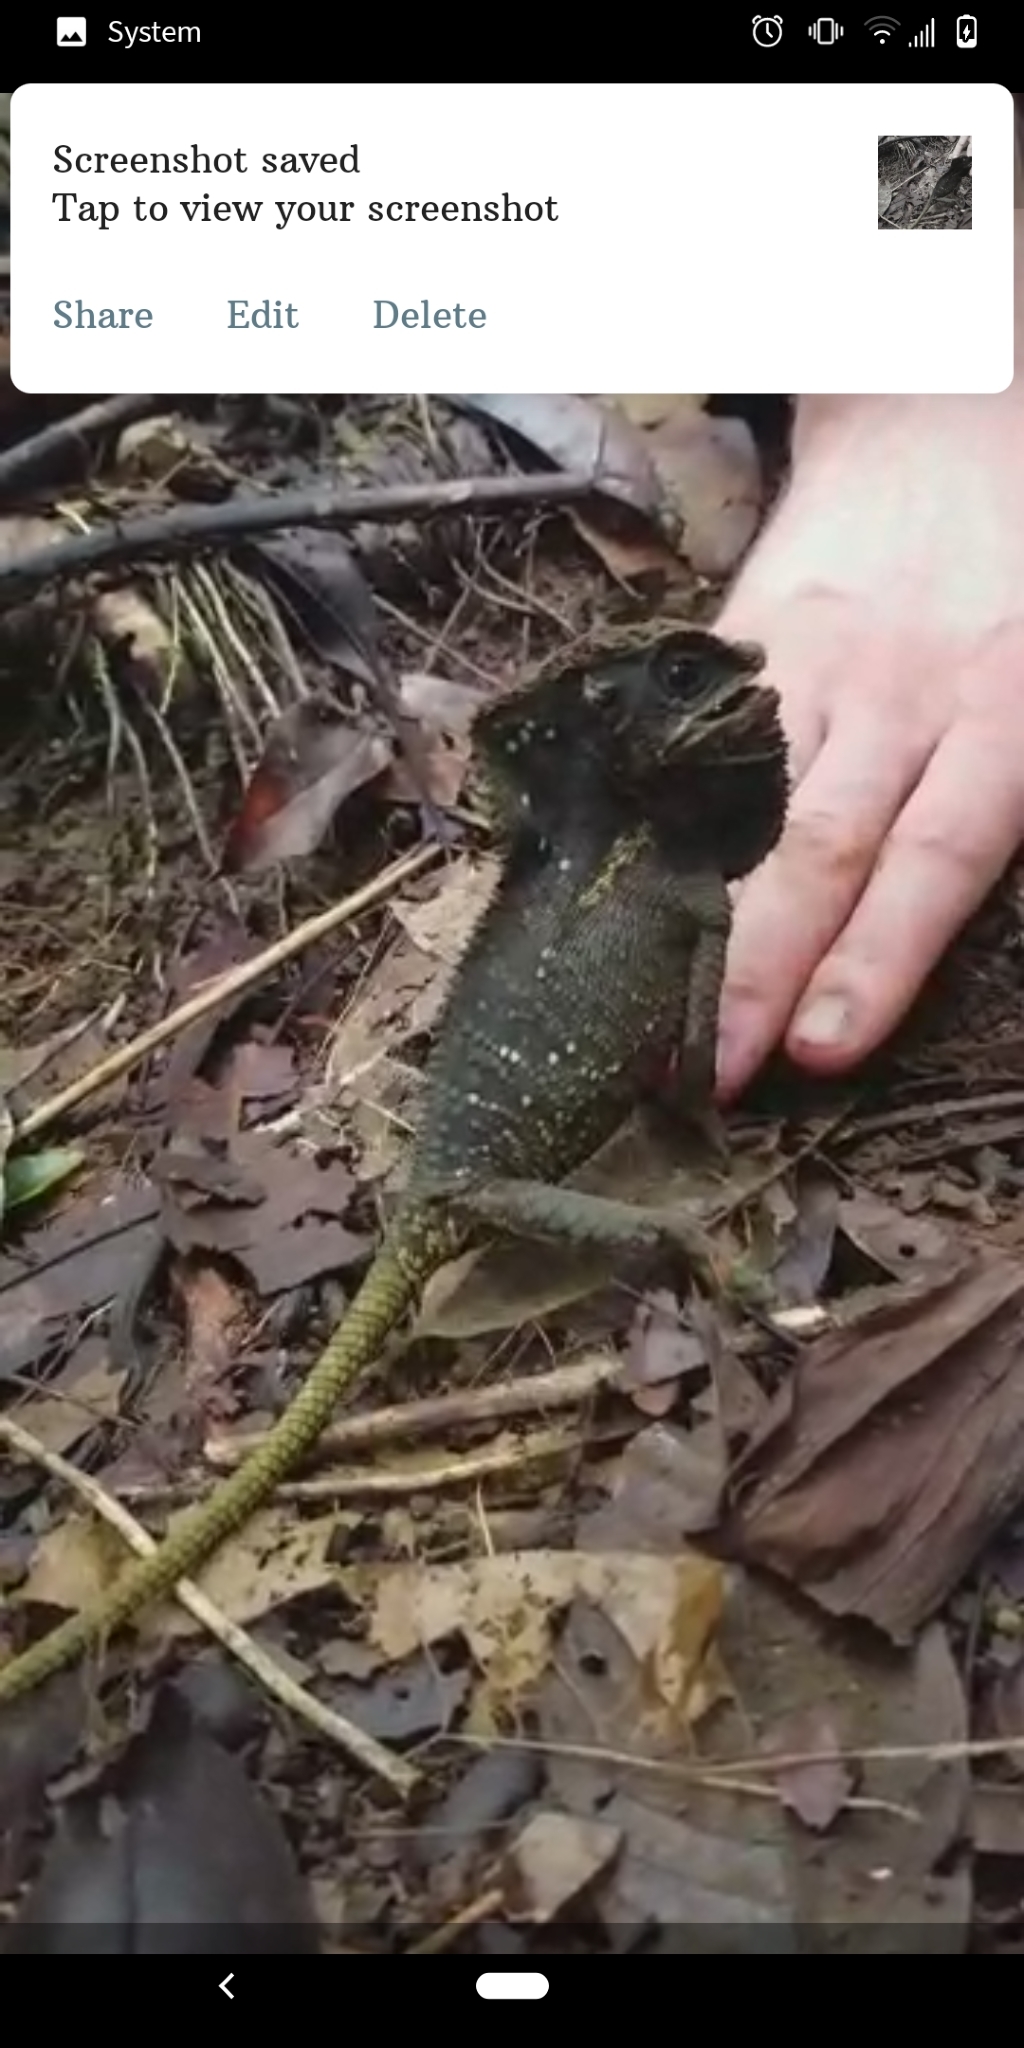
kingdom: Animalia
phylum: Chordata
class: Squamata
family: Corytophanidae
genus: Corytophanes
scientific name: Corytophanes cristatus
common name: Smooth helmeted iguana
